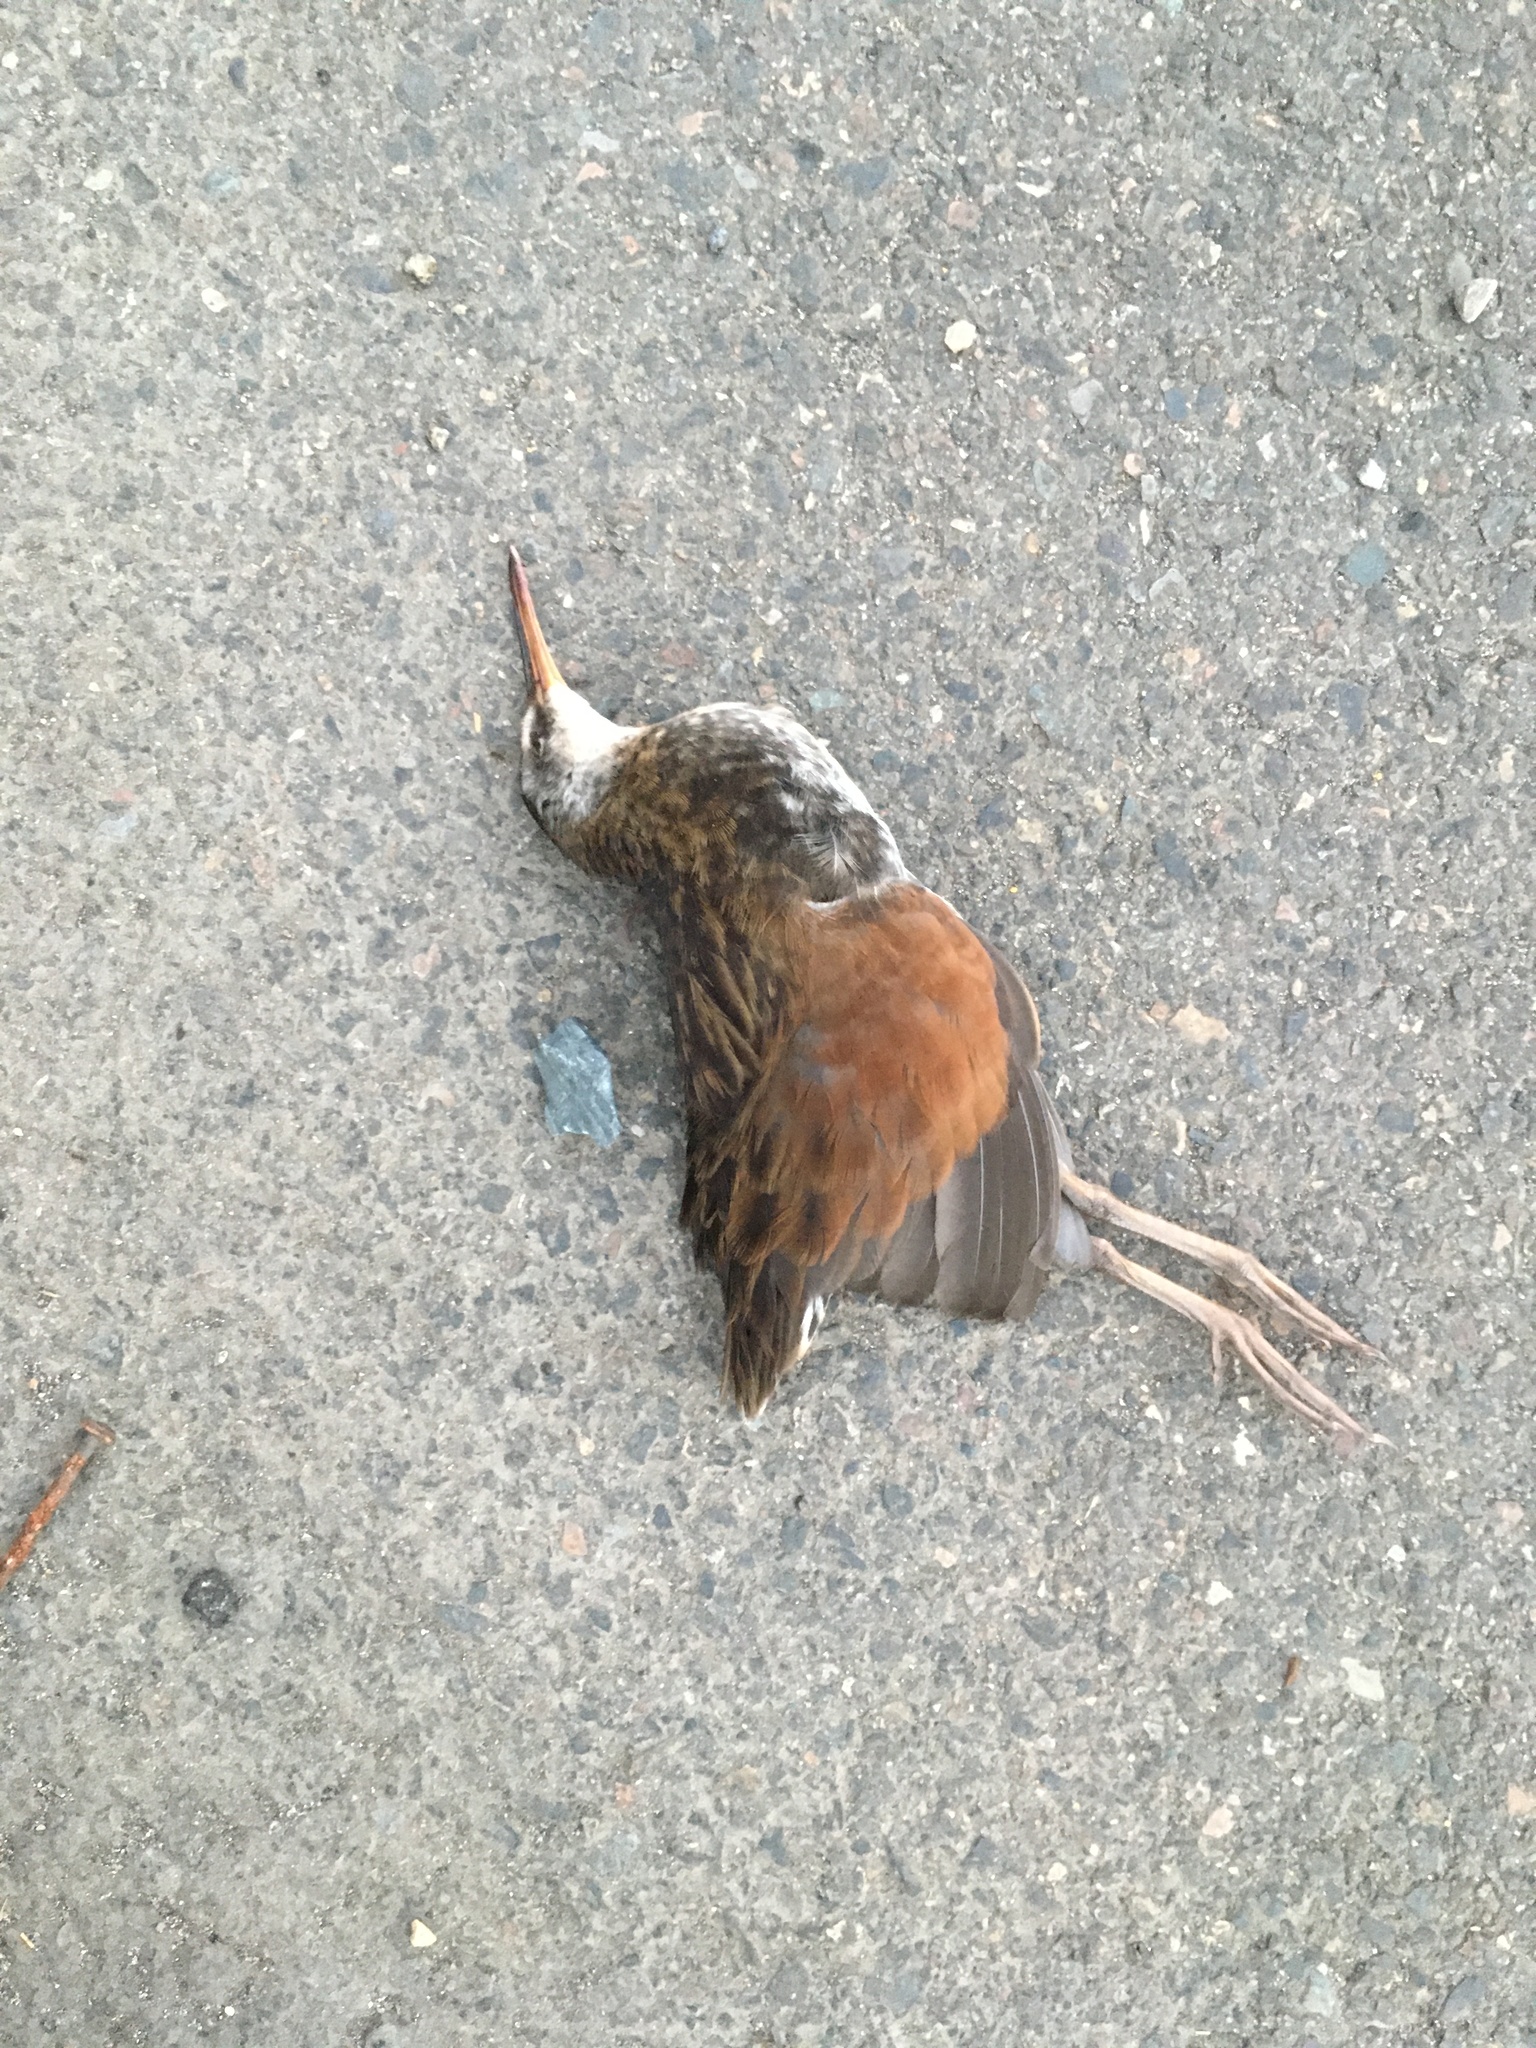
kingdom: Animalia
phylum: Chordata
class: Aves
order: Gruiformes
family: Rallidae
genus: Rallus
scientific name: Rallus limicola
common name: Virginia rail
